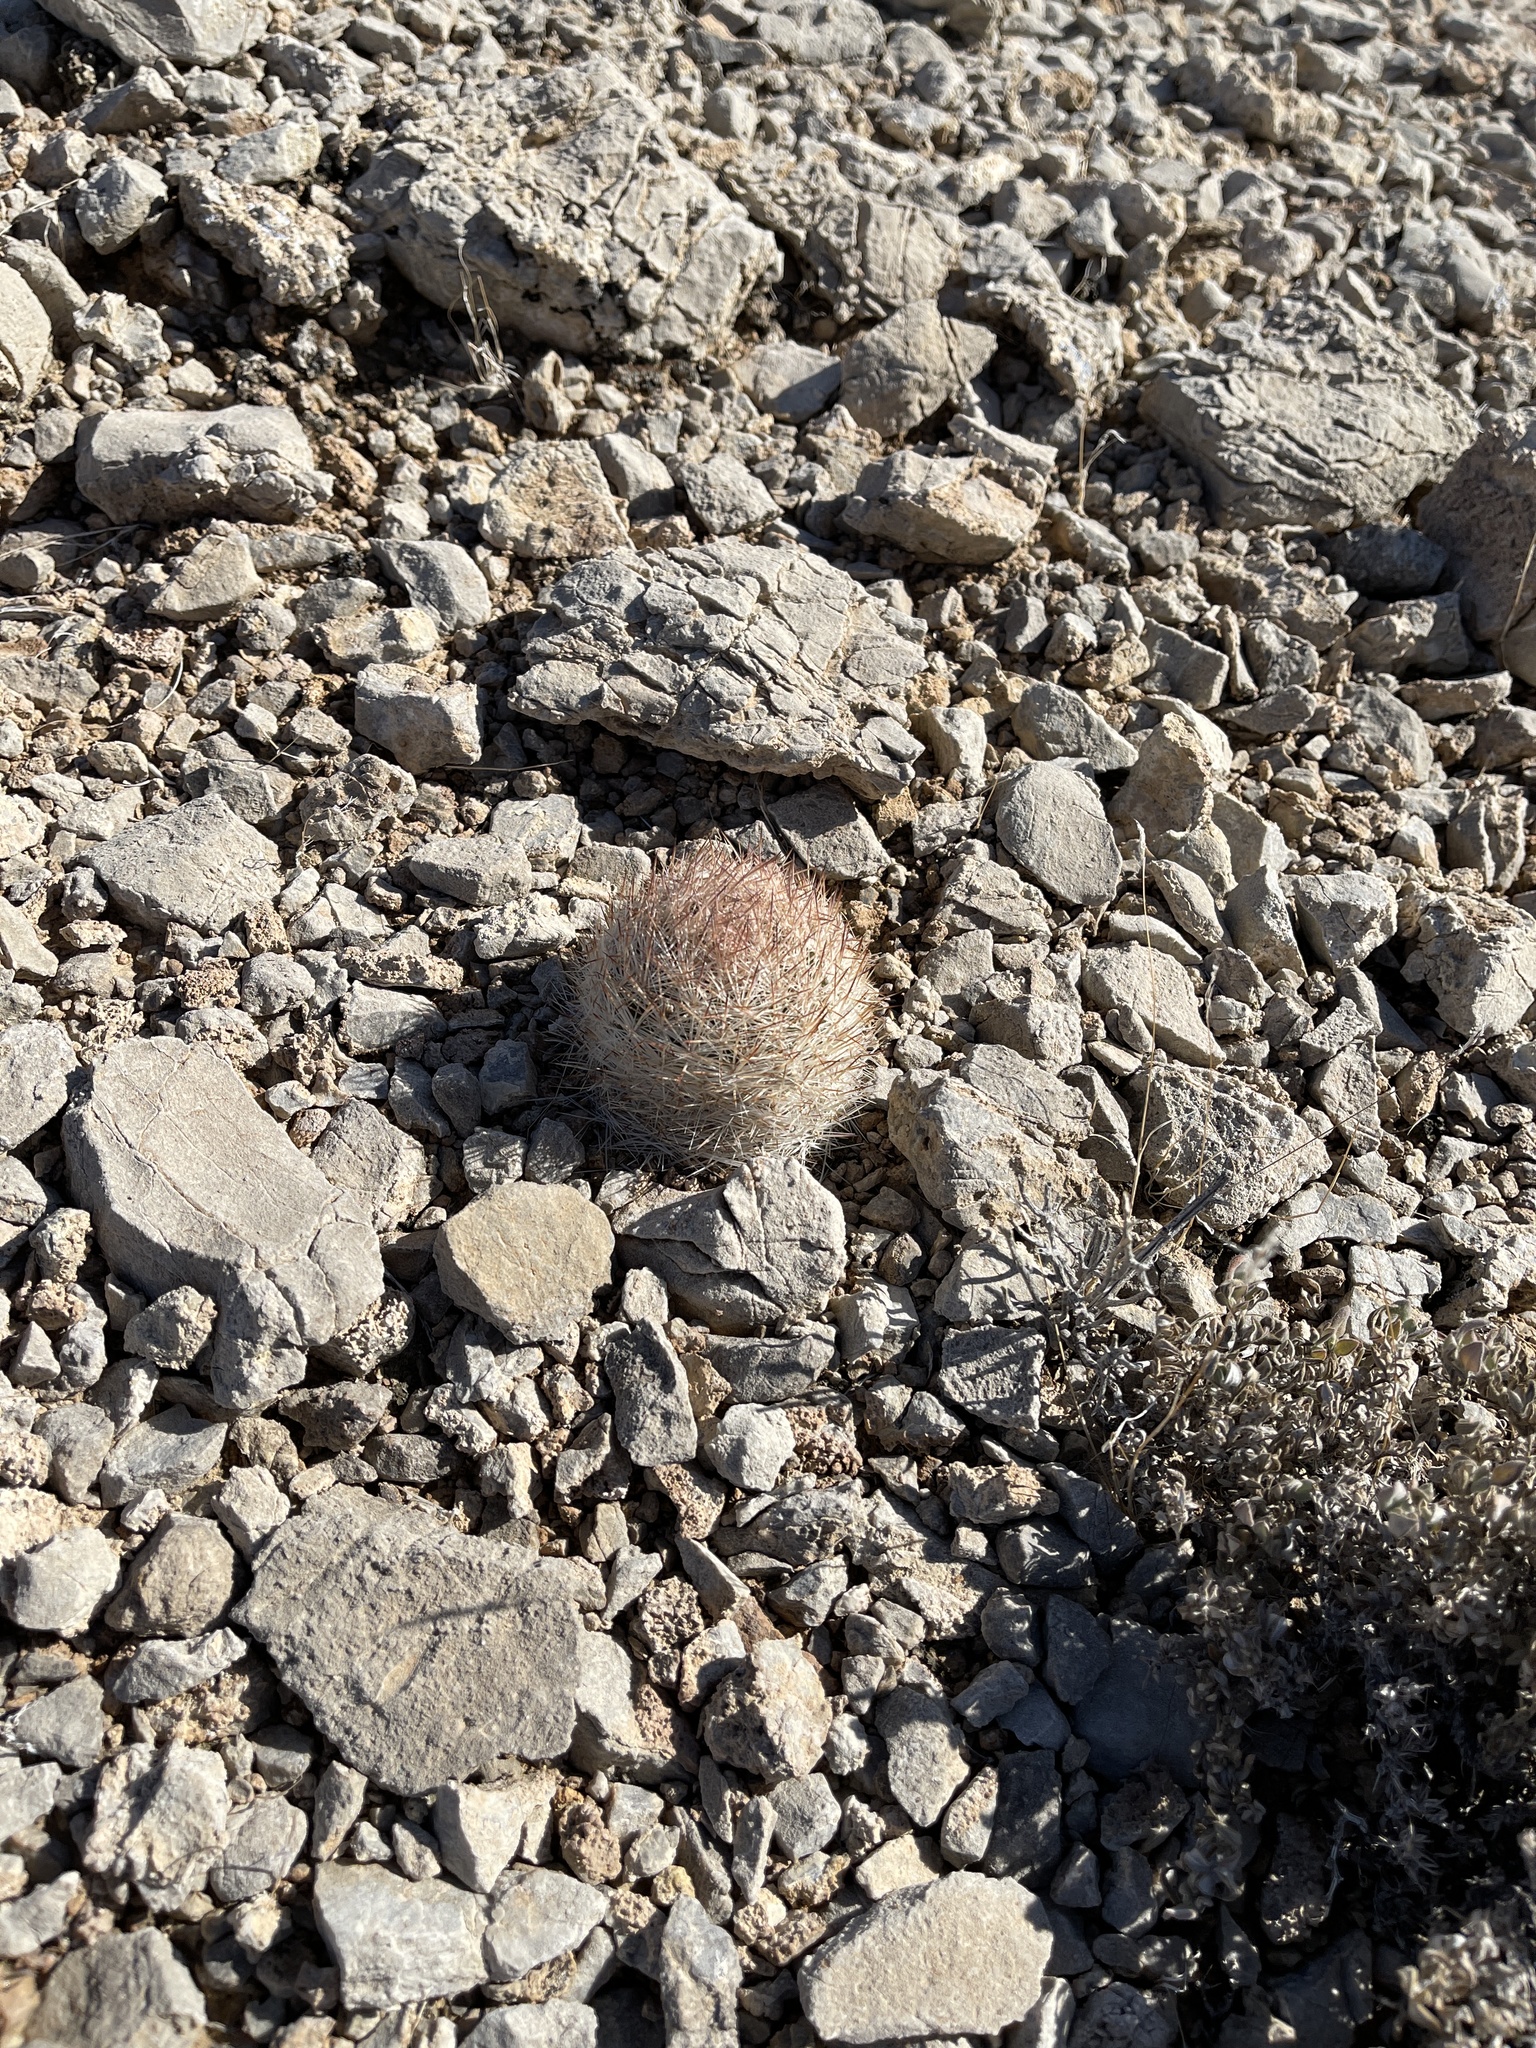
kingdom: Plantae
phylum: Tracheophyta
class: Magnoliopsida
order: Caryophyllales
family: Cactaceae
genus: Pelecyphora
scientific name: Pelecyphora dasyacantha
